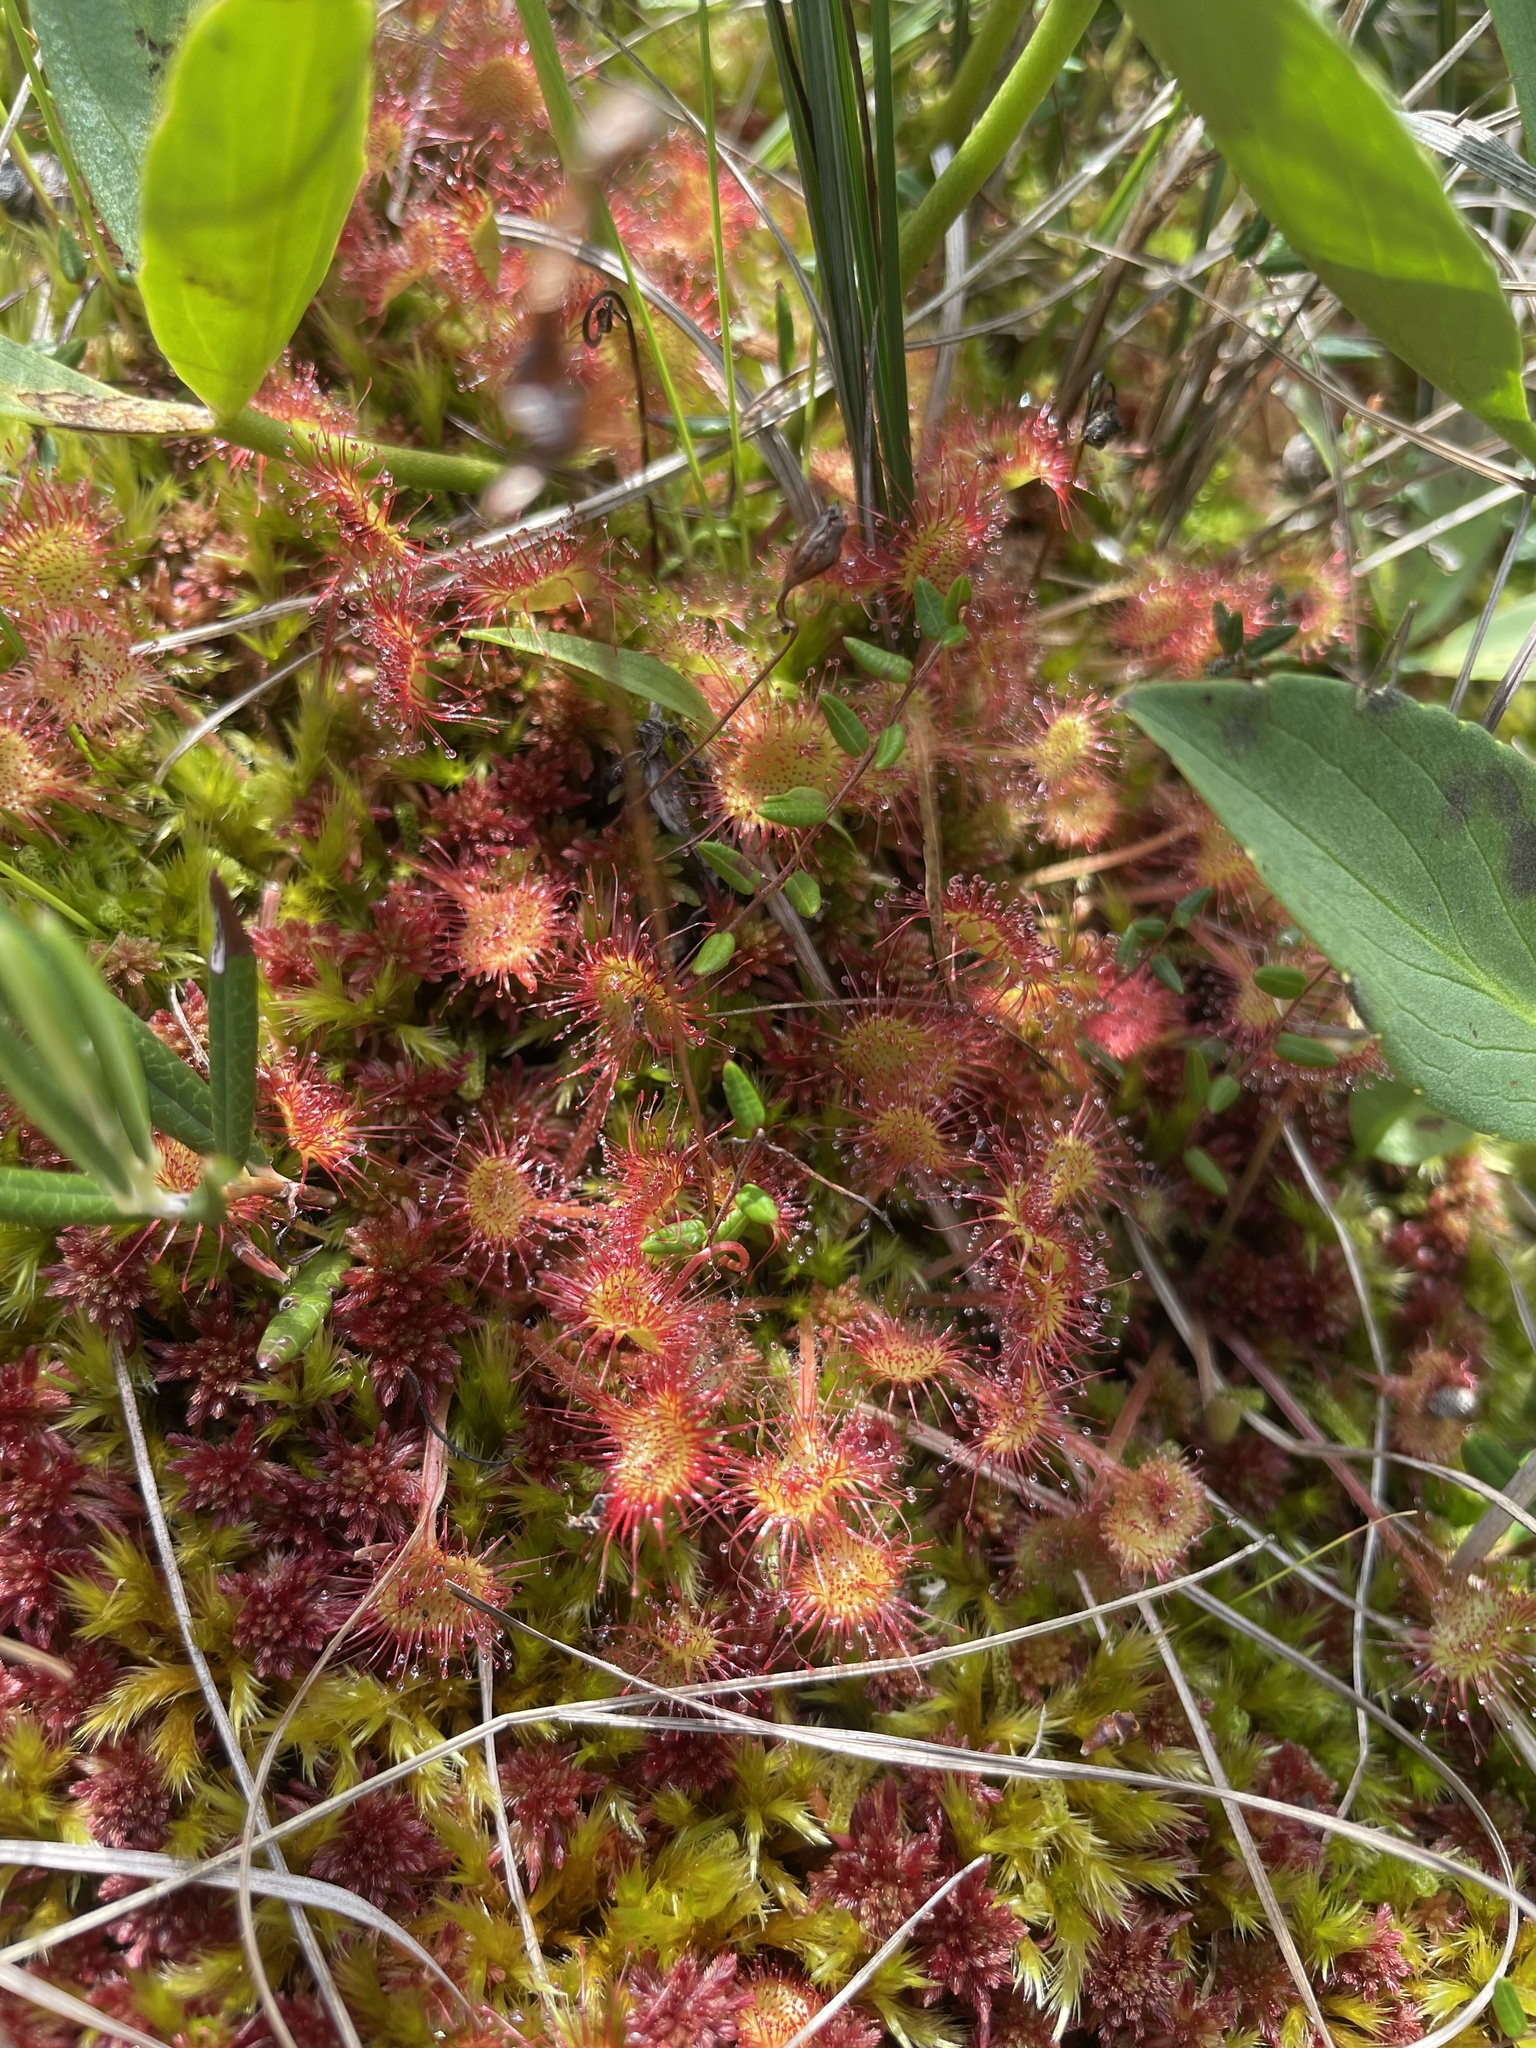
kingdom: Plantae
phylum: Tracheophyta
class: Magnoliopsida
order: Caryophyllales
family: Droseraceae
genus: Drosera
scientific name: Drosera rotundifolia
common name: Round-leaved sundew
